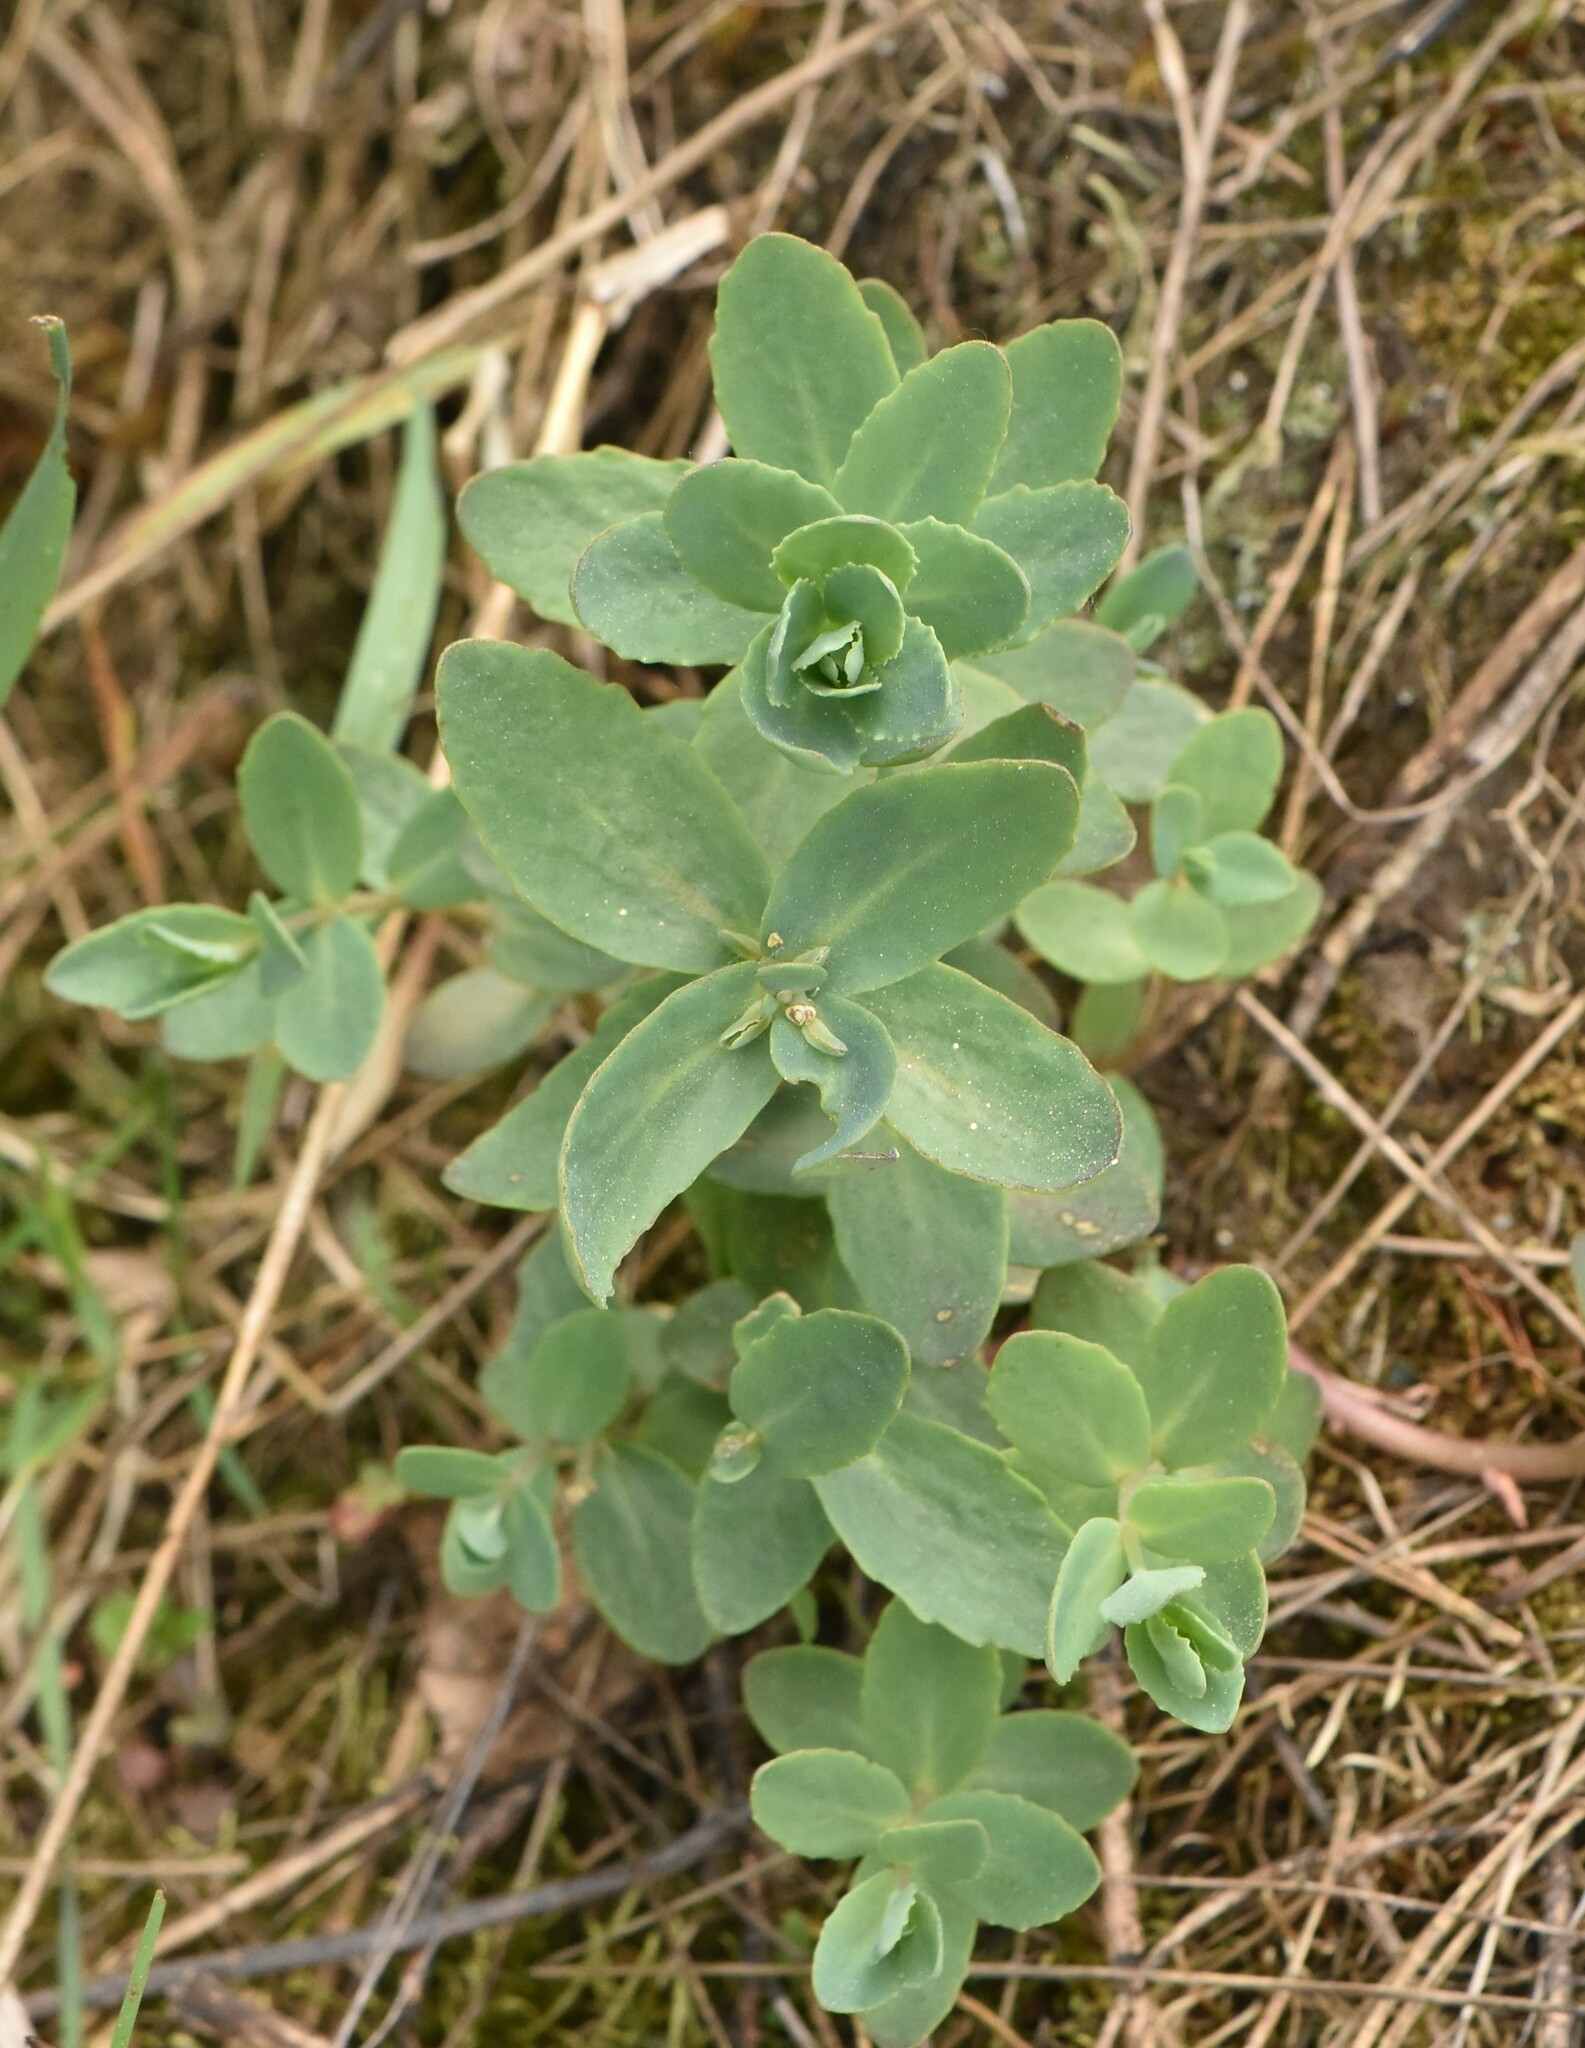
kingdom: Plantae
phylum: Tracheophyta
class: Magnoliopsida
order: Saxifragales
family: Crassulaceae
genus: Hylotelephium
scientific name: Hylotelephium maximum
